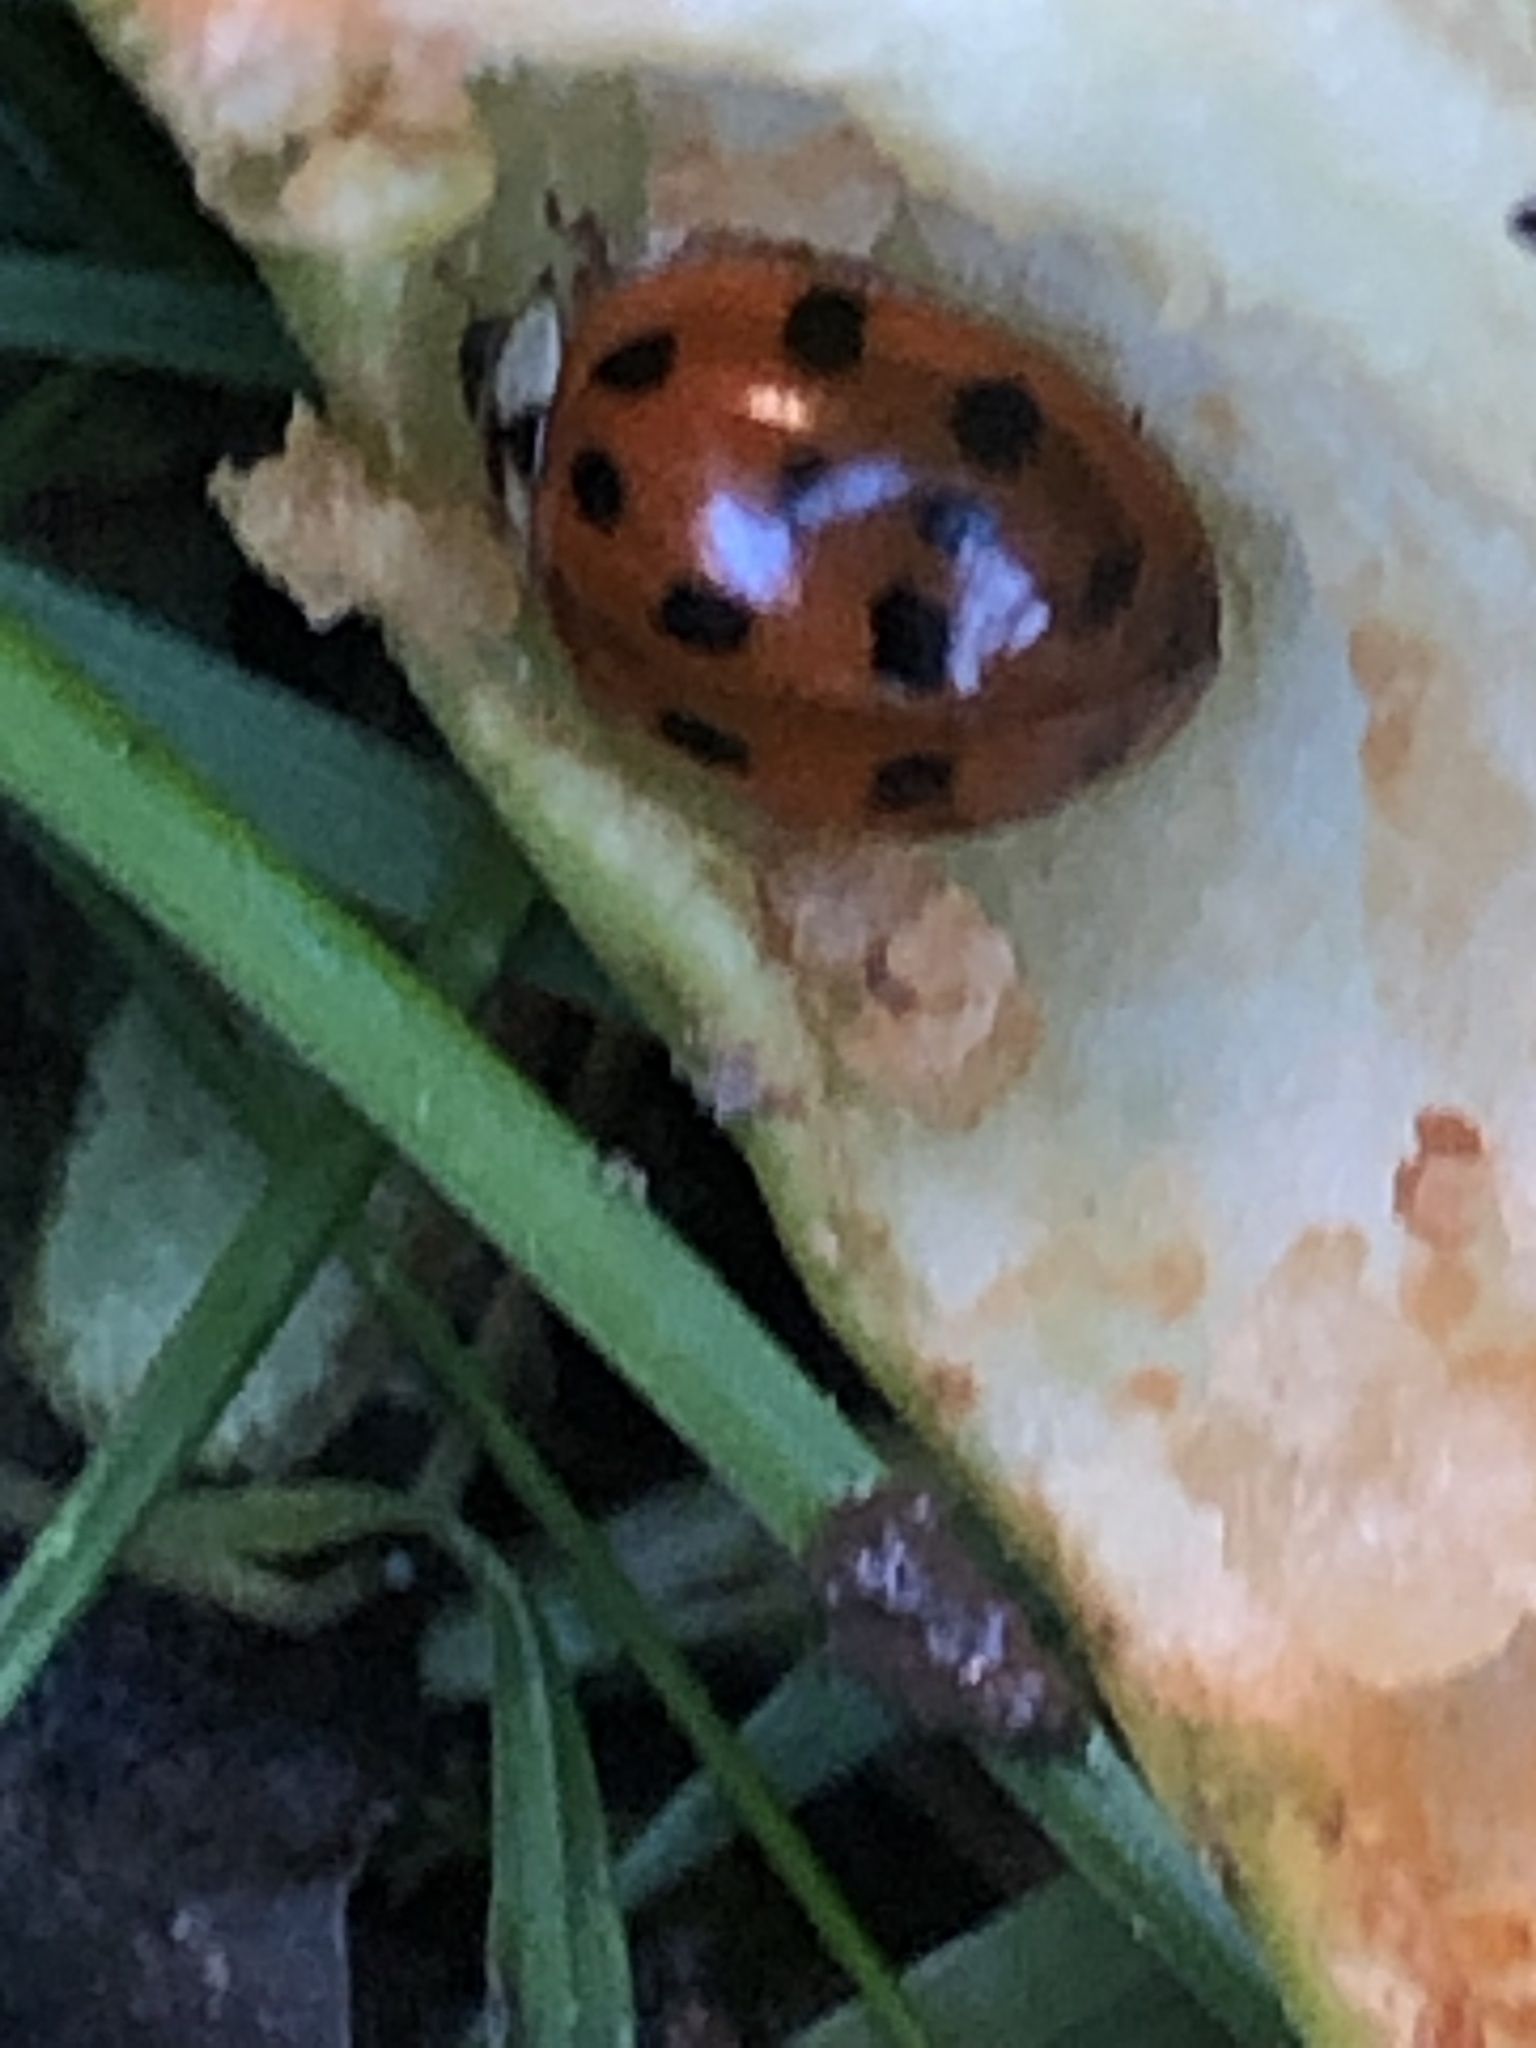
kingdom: Animalia
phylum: Arthropoda
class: Insecta
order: Coleoptera
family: Coccinellidae
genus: Harmonia
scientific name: Harmonia axyridis
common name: Harlequin ladybird
